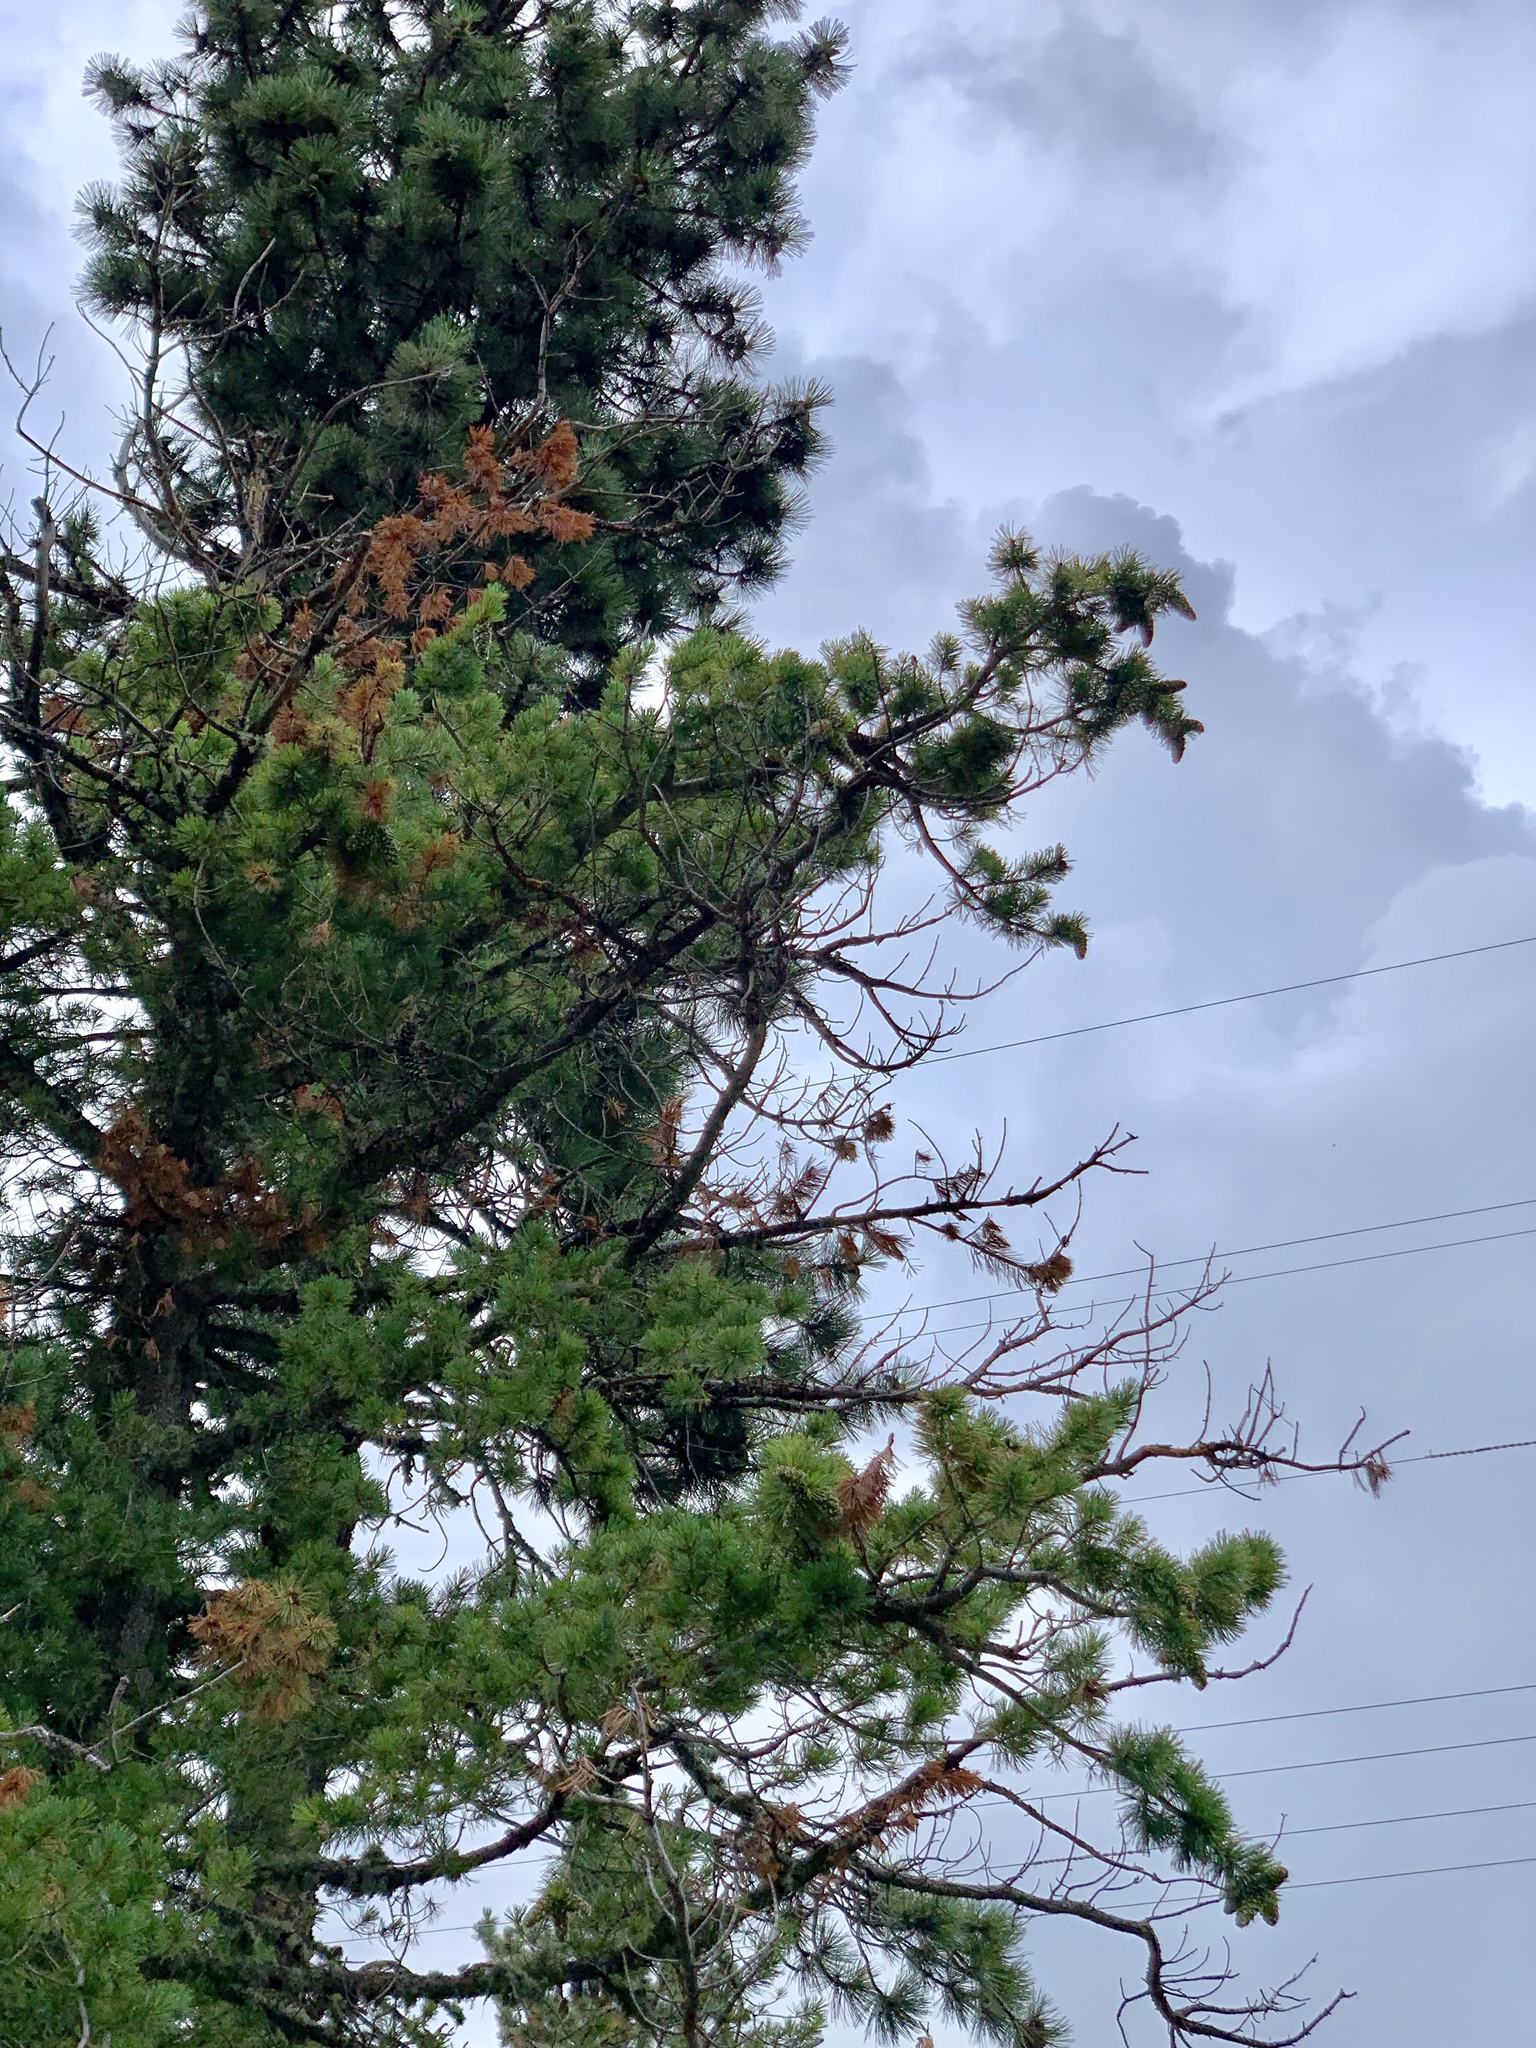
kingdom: Plantae
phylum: Tracheophyta
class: Pinopsida
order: Pinales
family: Pinaceae
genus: Pinus
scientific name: Pinus strobiformis
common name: Southwestern white pine
